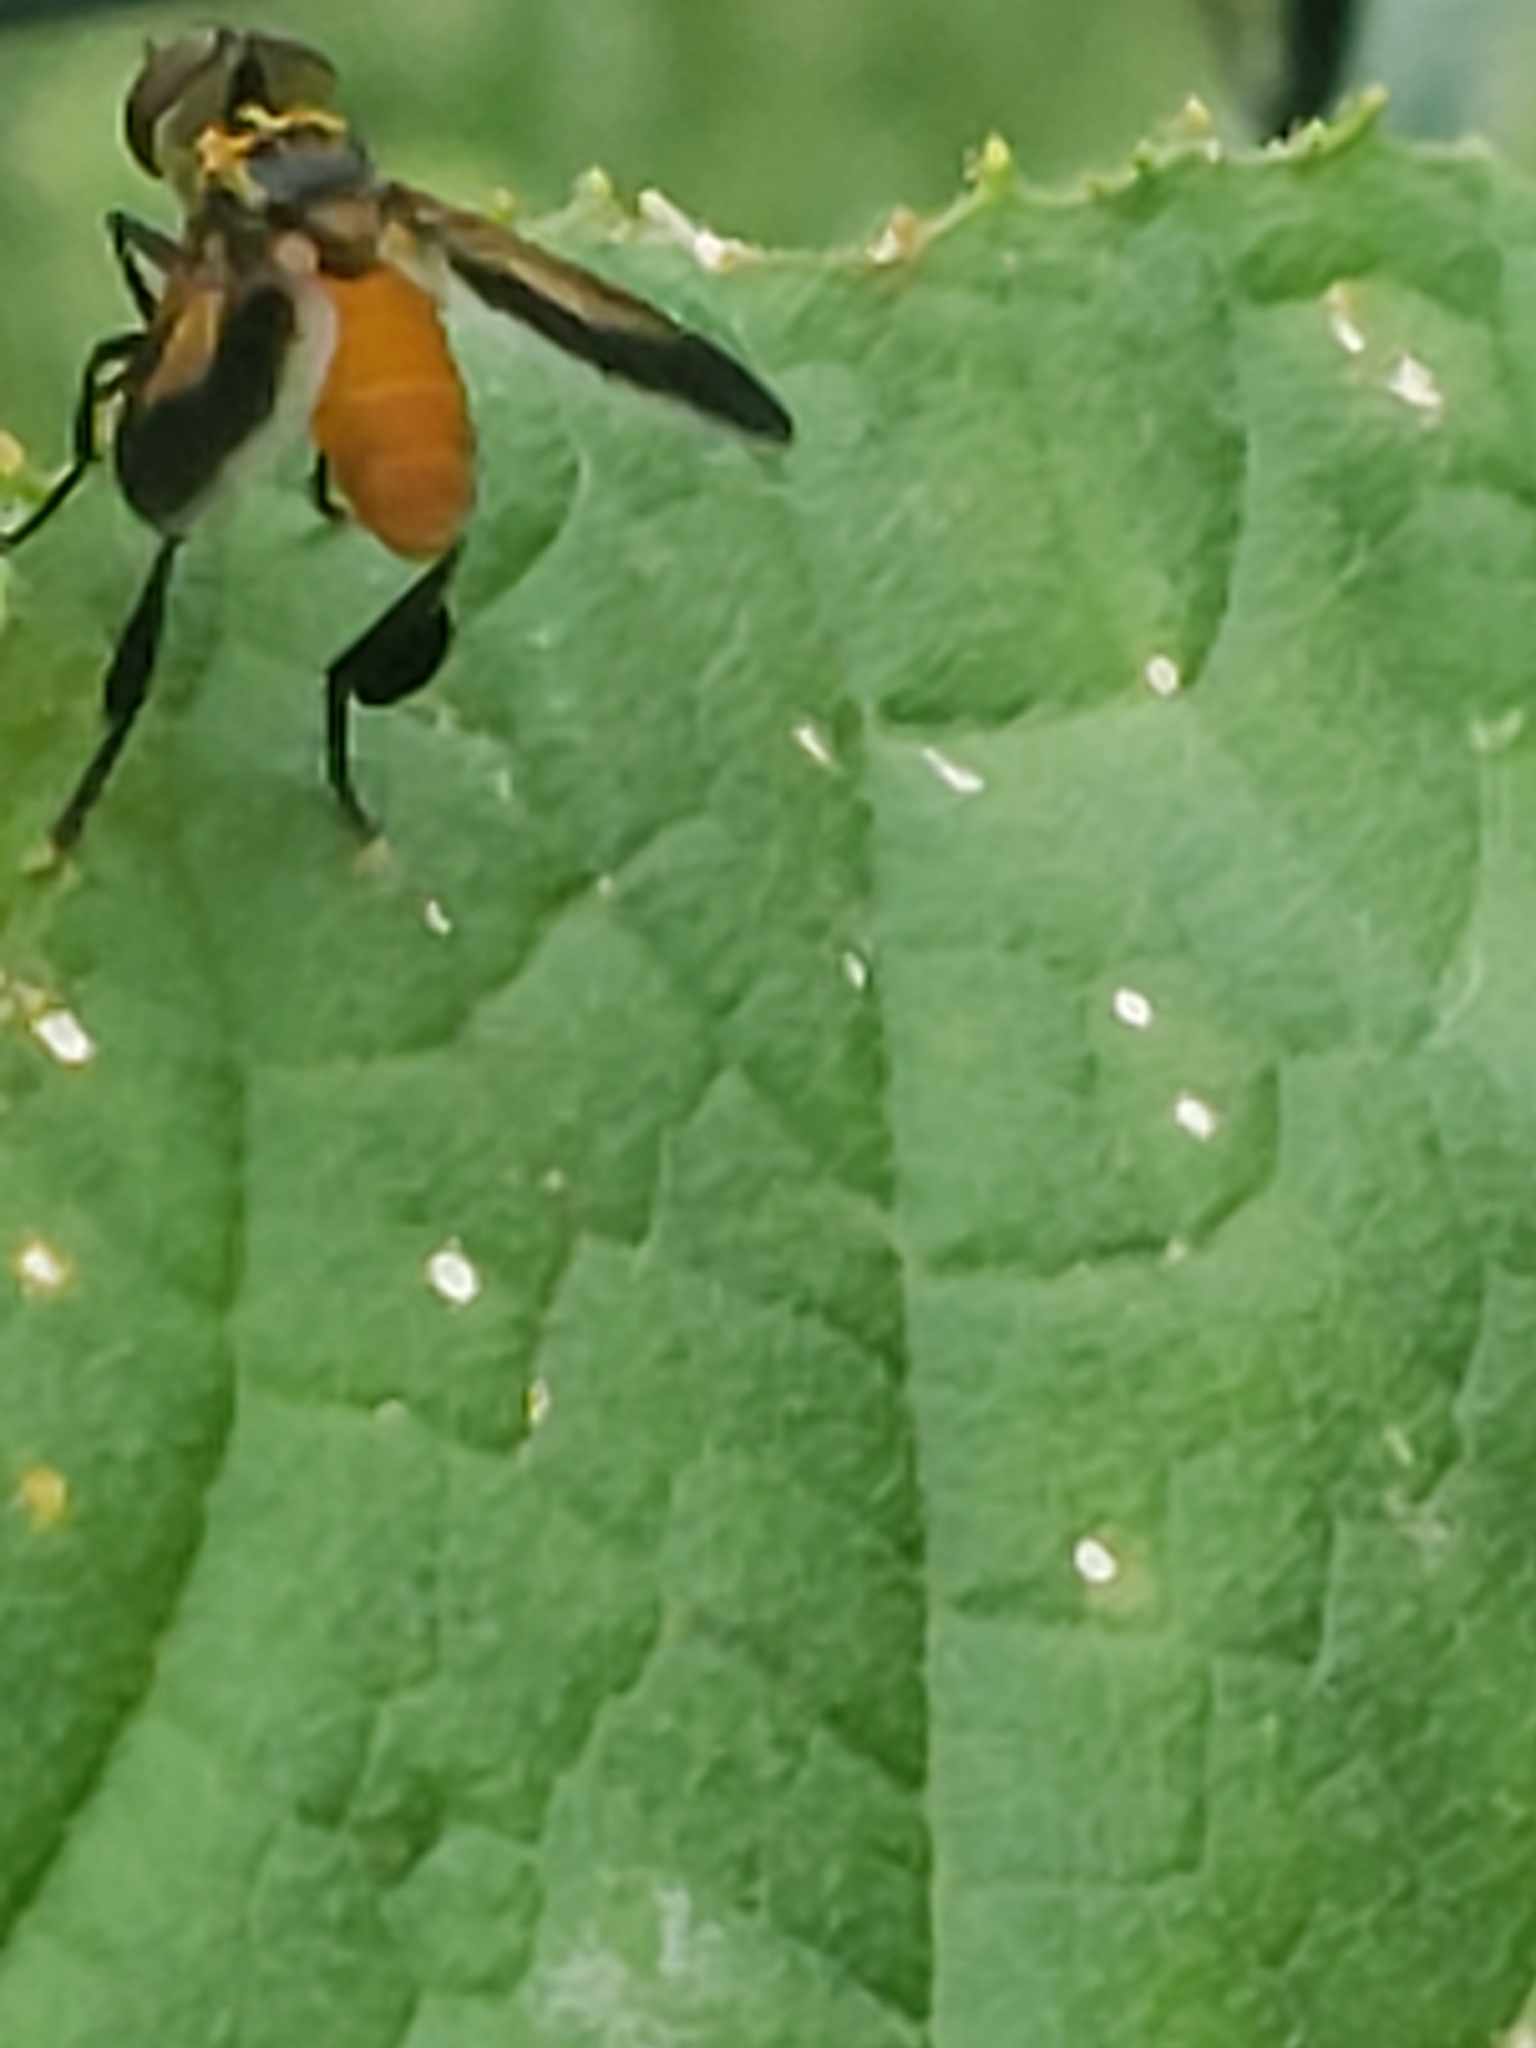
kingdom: Animalia
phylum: Arthropoda
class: Insecta
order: Diptera
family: Tachinidae
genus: Trichopoda
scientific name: Trichopoda pennipes
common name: Tachinid fly
